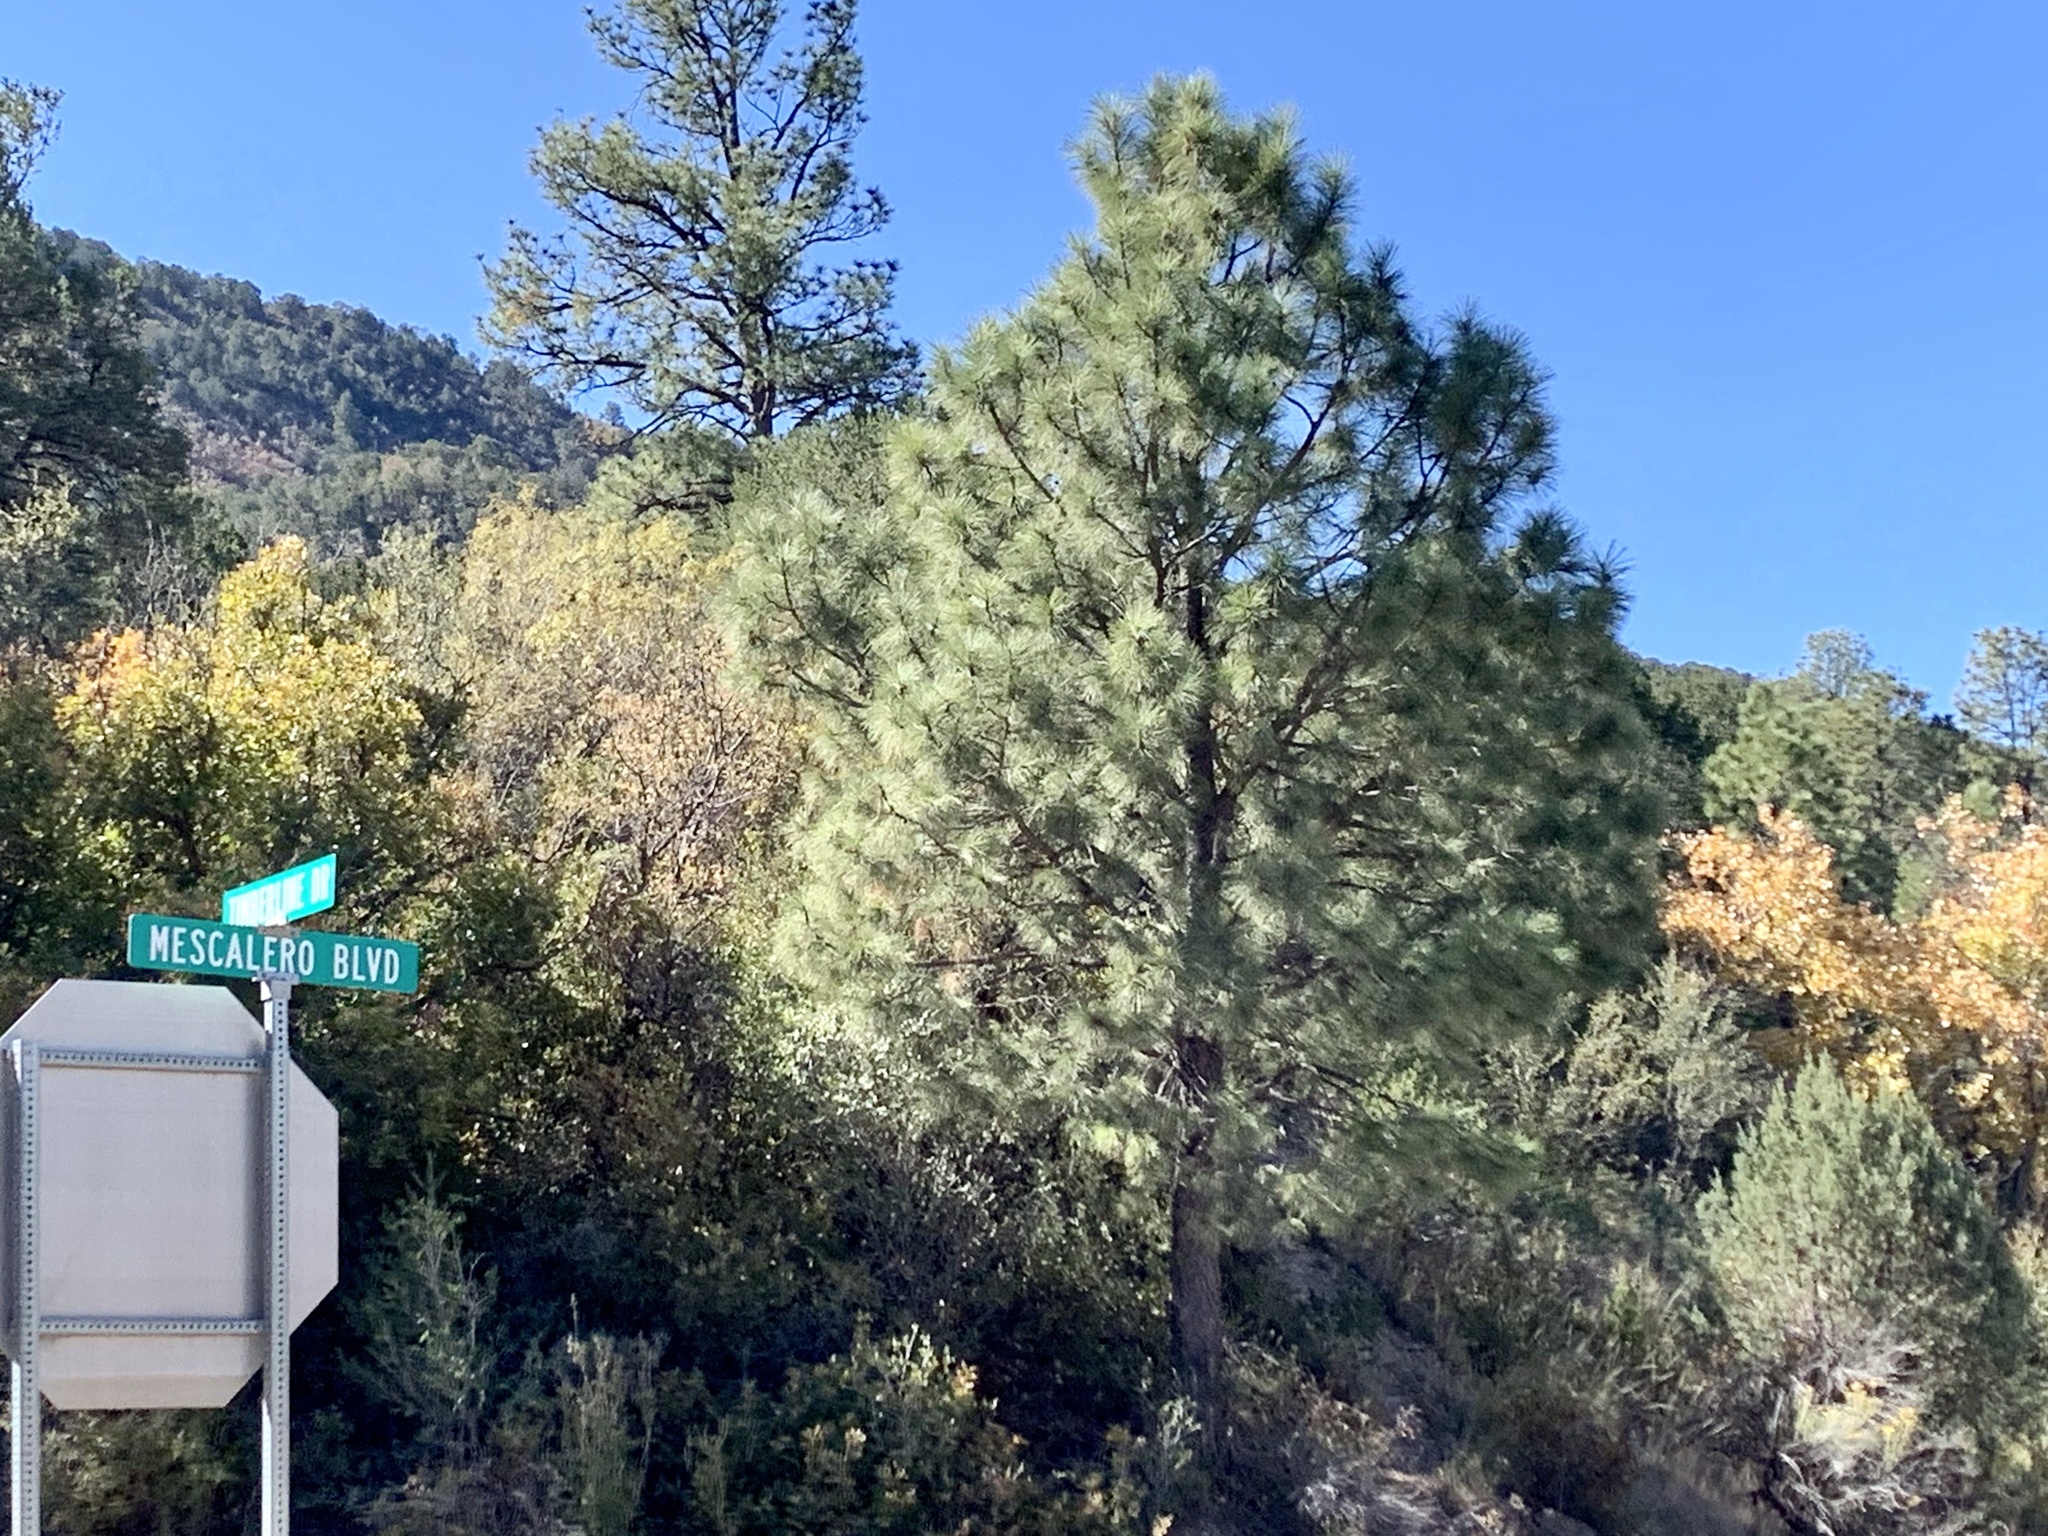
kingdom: Plantae
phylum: Tracheophyta
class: Pinopsida
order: Pinales
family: Pinaceae
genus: Pinus
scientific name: Pinus ponderosa
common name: Western yellow-pine
